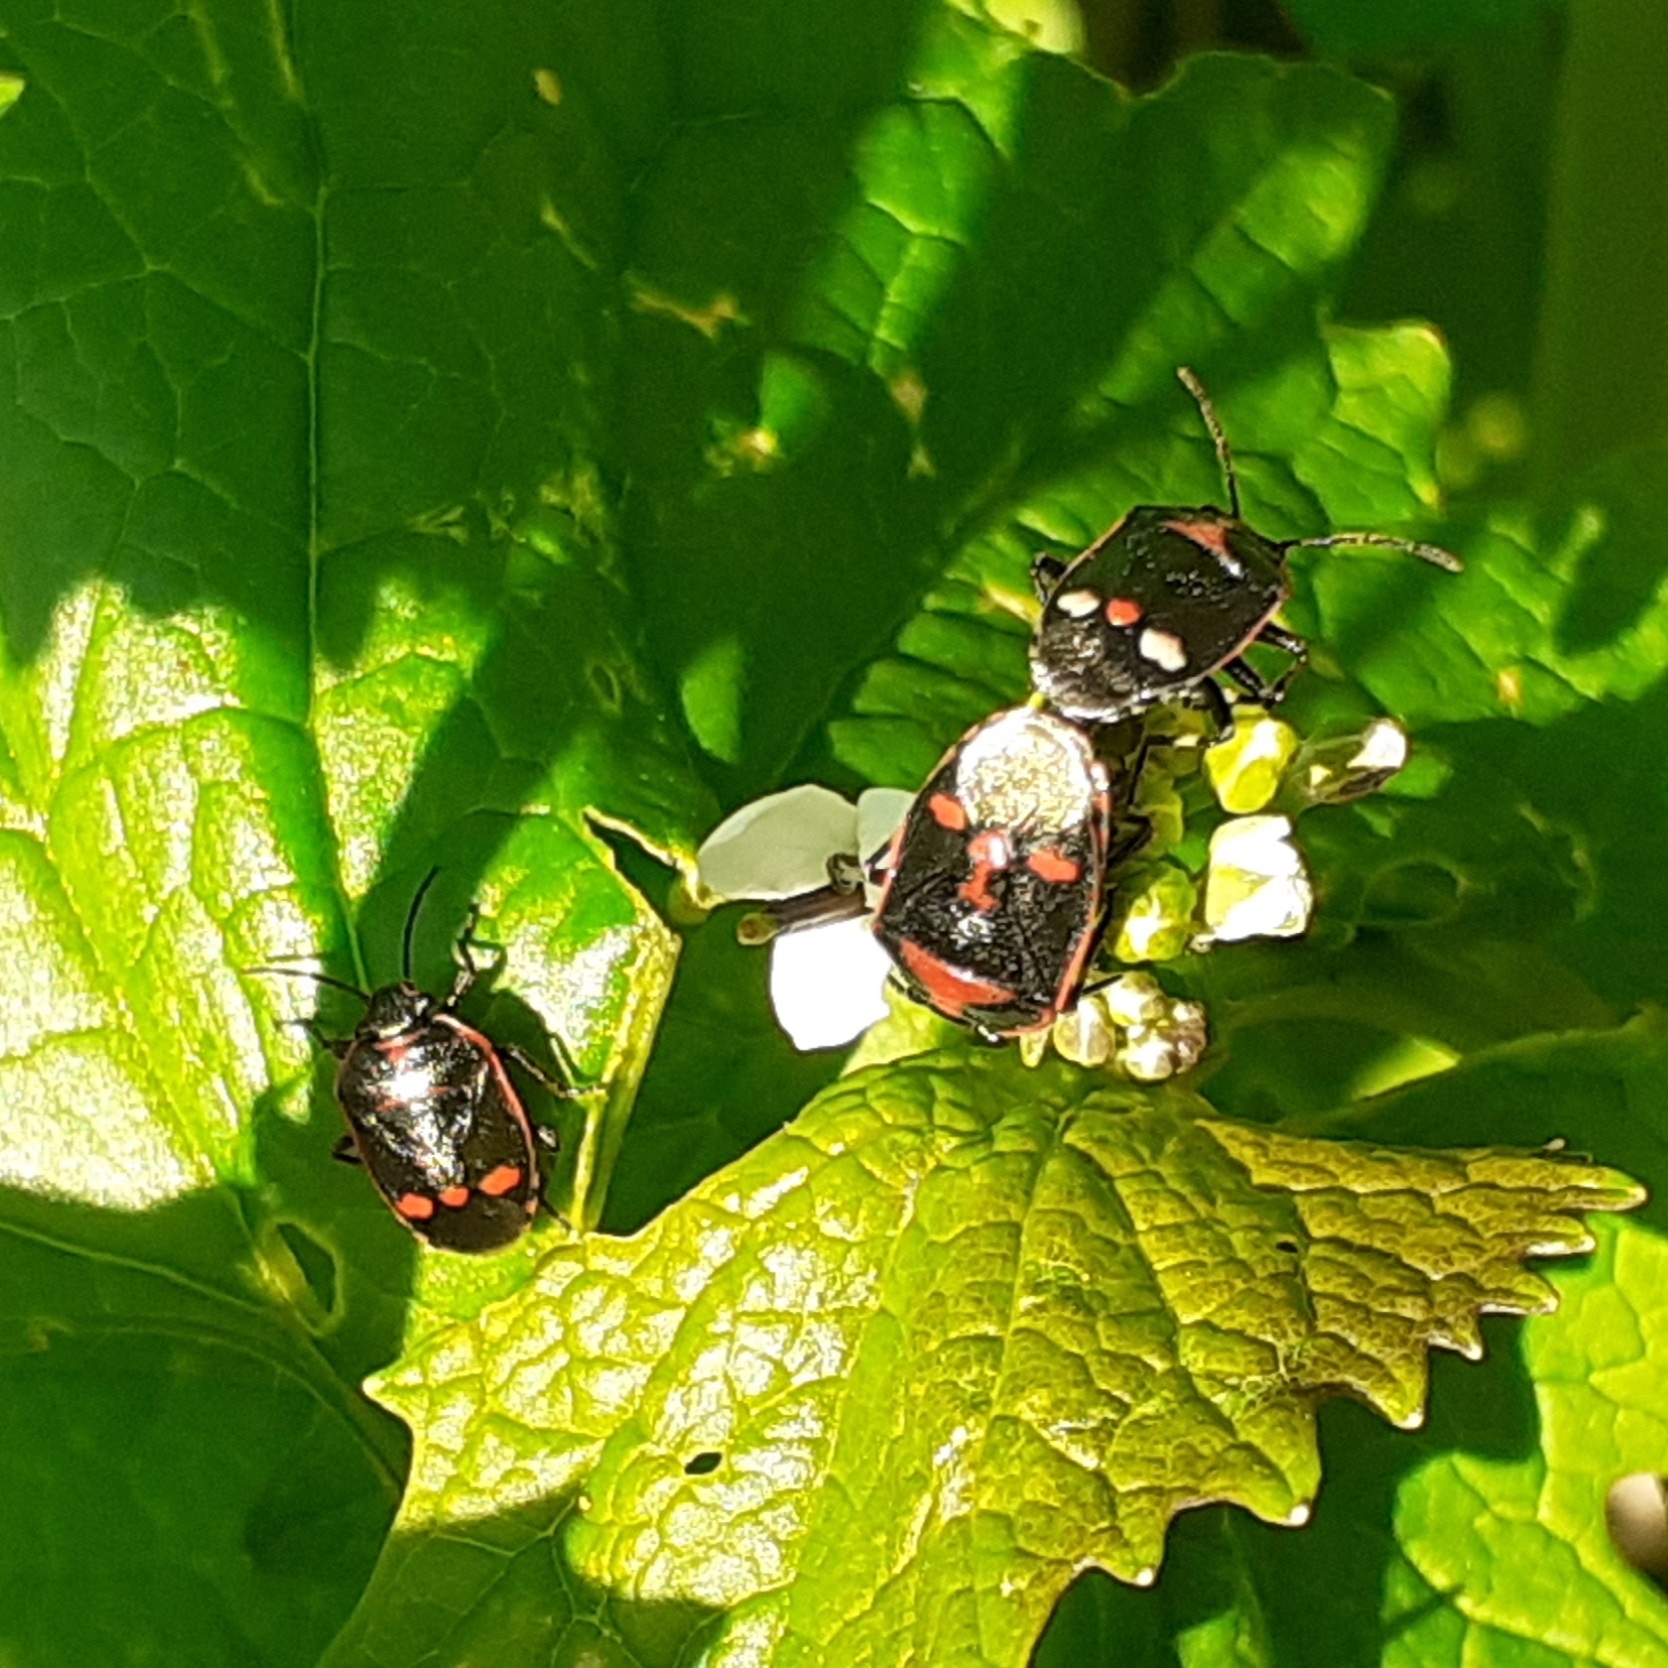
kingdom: Animalia
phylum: Arthropoda
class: Insecta
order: Hemiptera
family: Pentatomidae
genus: Eurydema
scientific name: Eurydema oleracea
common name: Cabbage bug
